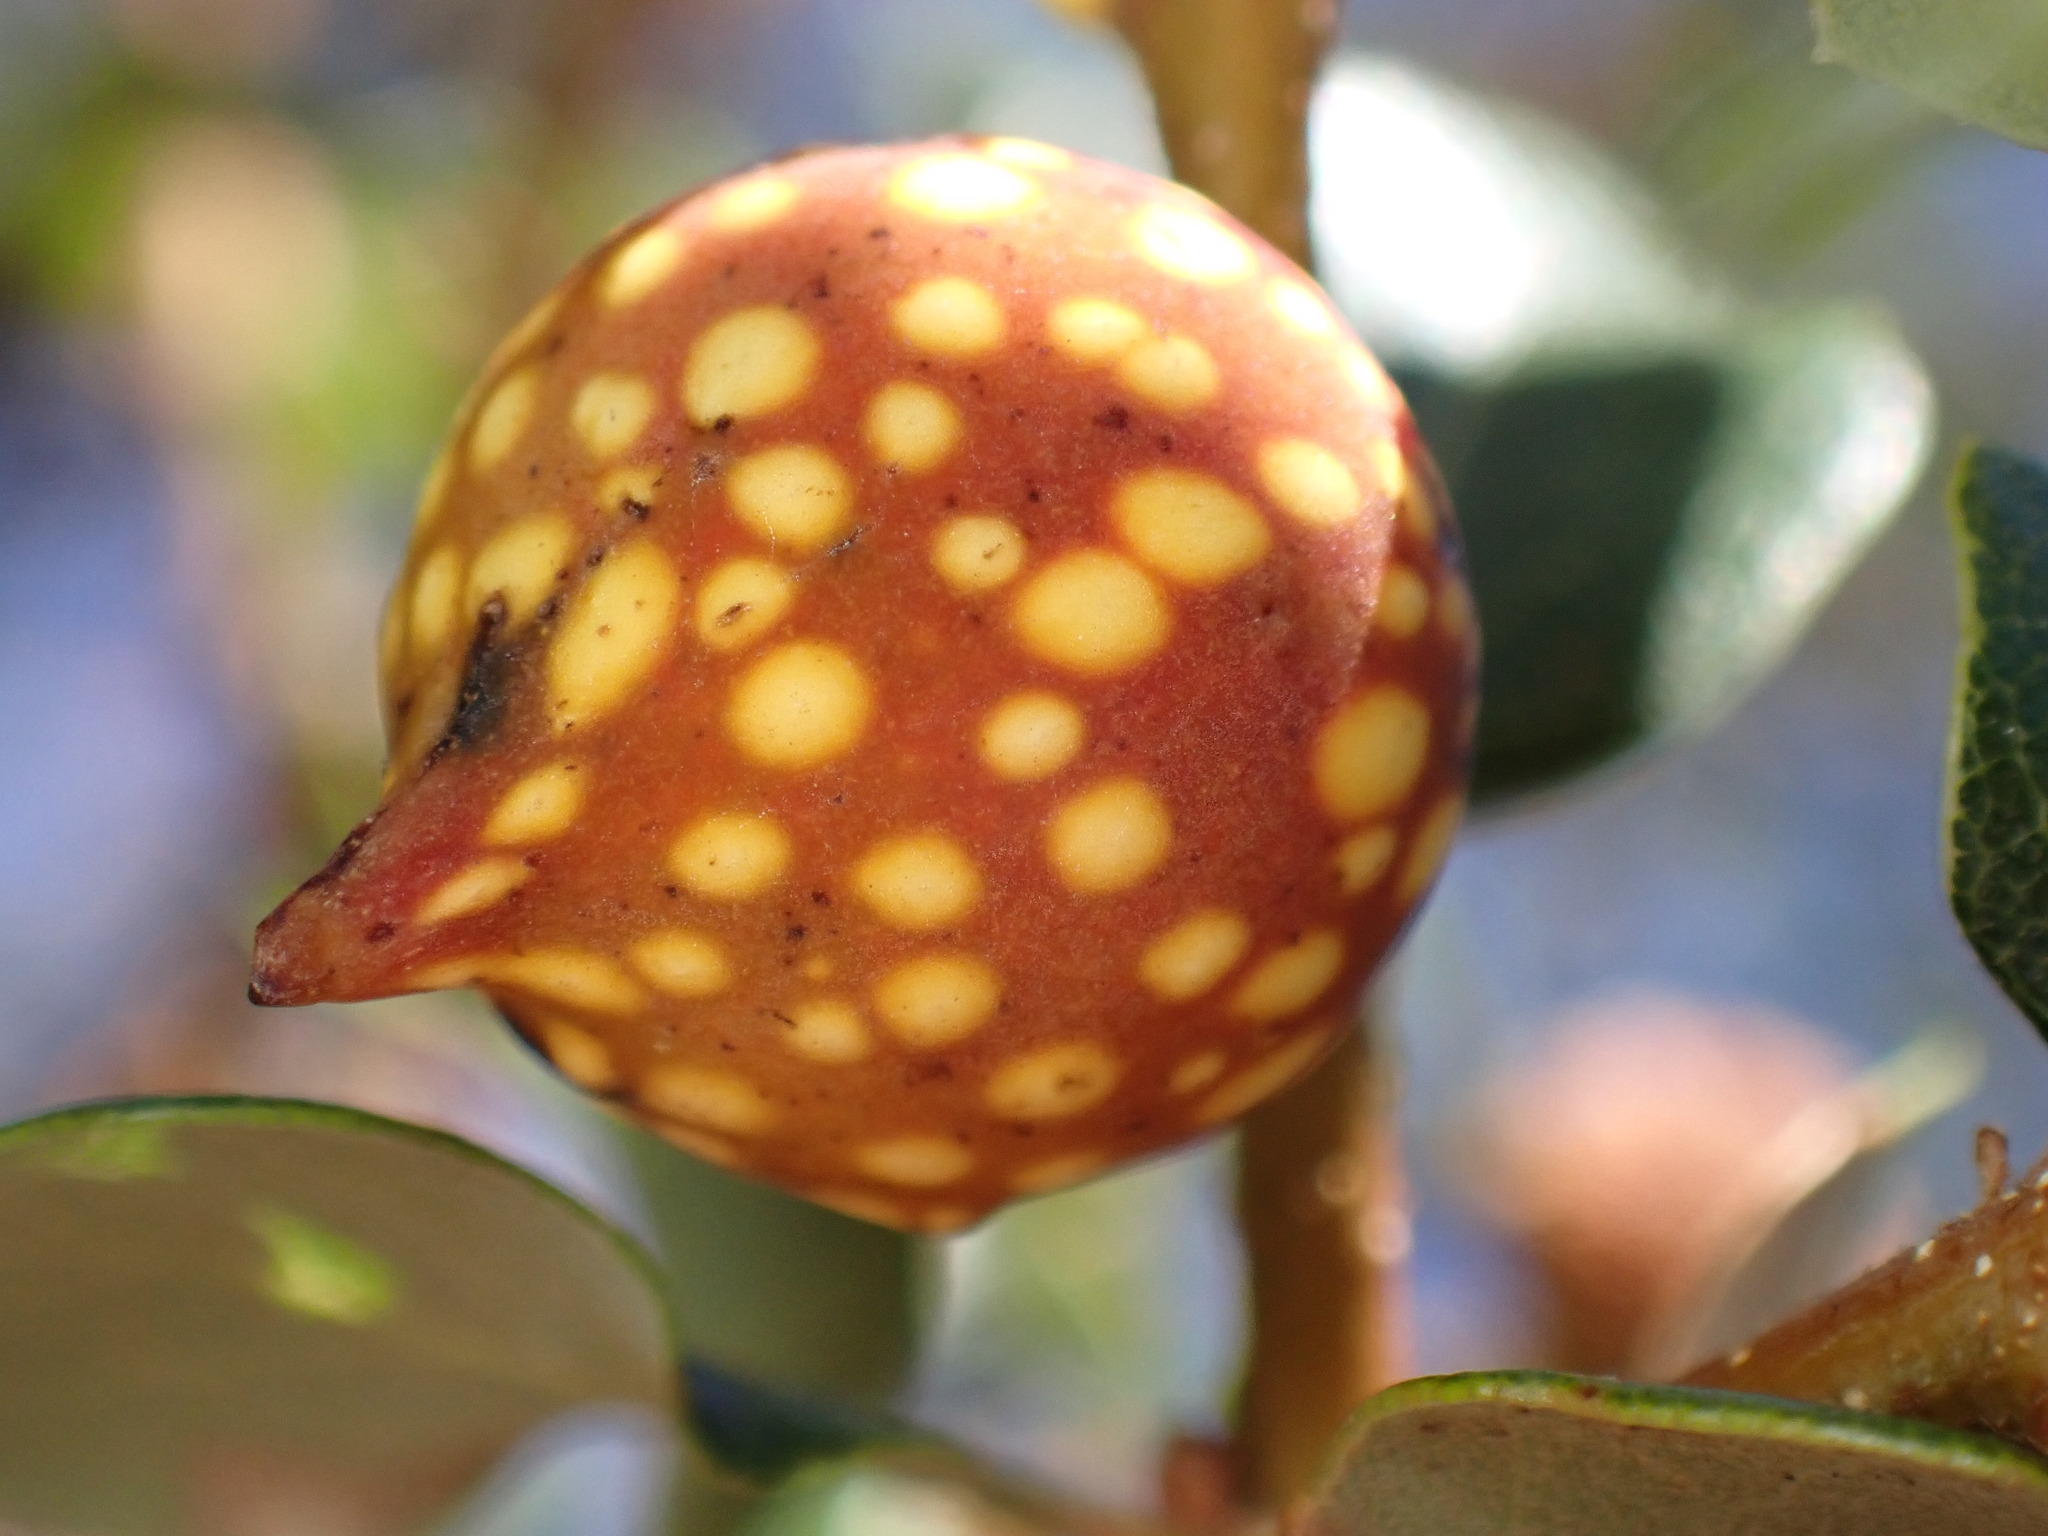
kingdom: Animalia
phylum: Arthropoda
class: Insecta
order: Hymenoptera
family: Cynipidae
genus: Burnettweldia
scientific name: Burnettweldia
